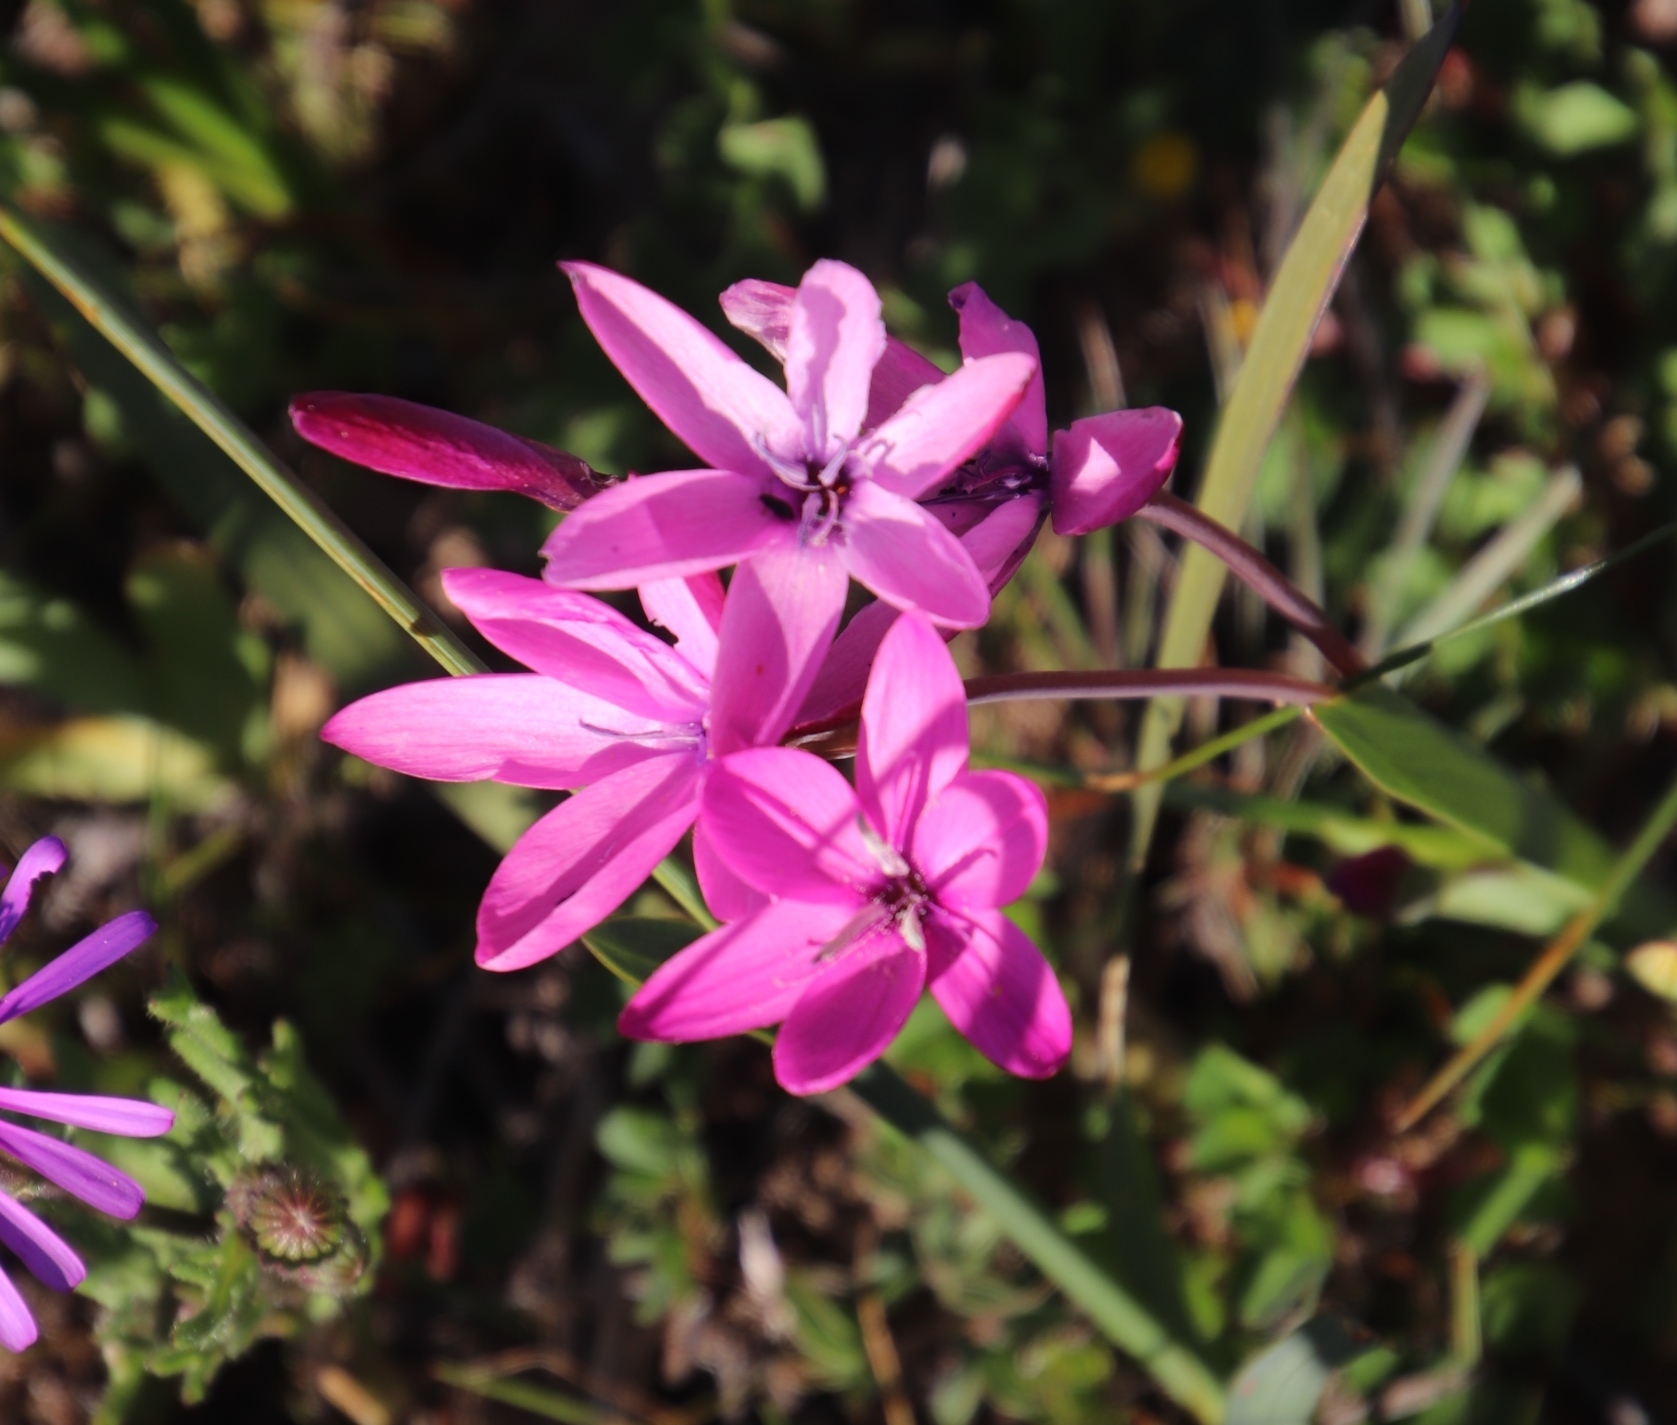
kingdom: Plantae
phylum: Tracheophyta
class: Liliopsida
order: Asparagales
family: Iridaceae
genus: Hesperantha
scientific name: Hesperantha pauciflora
